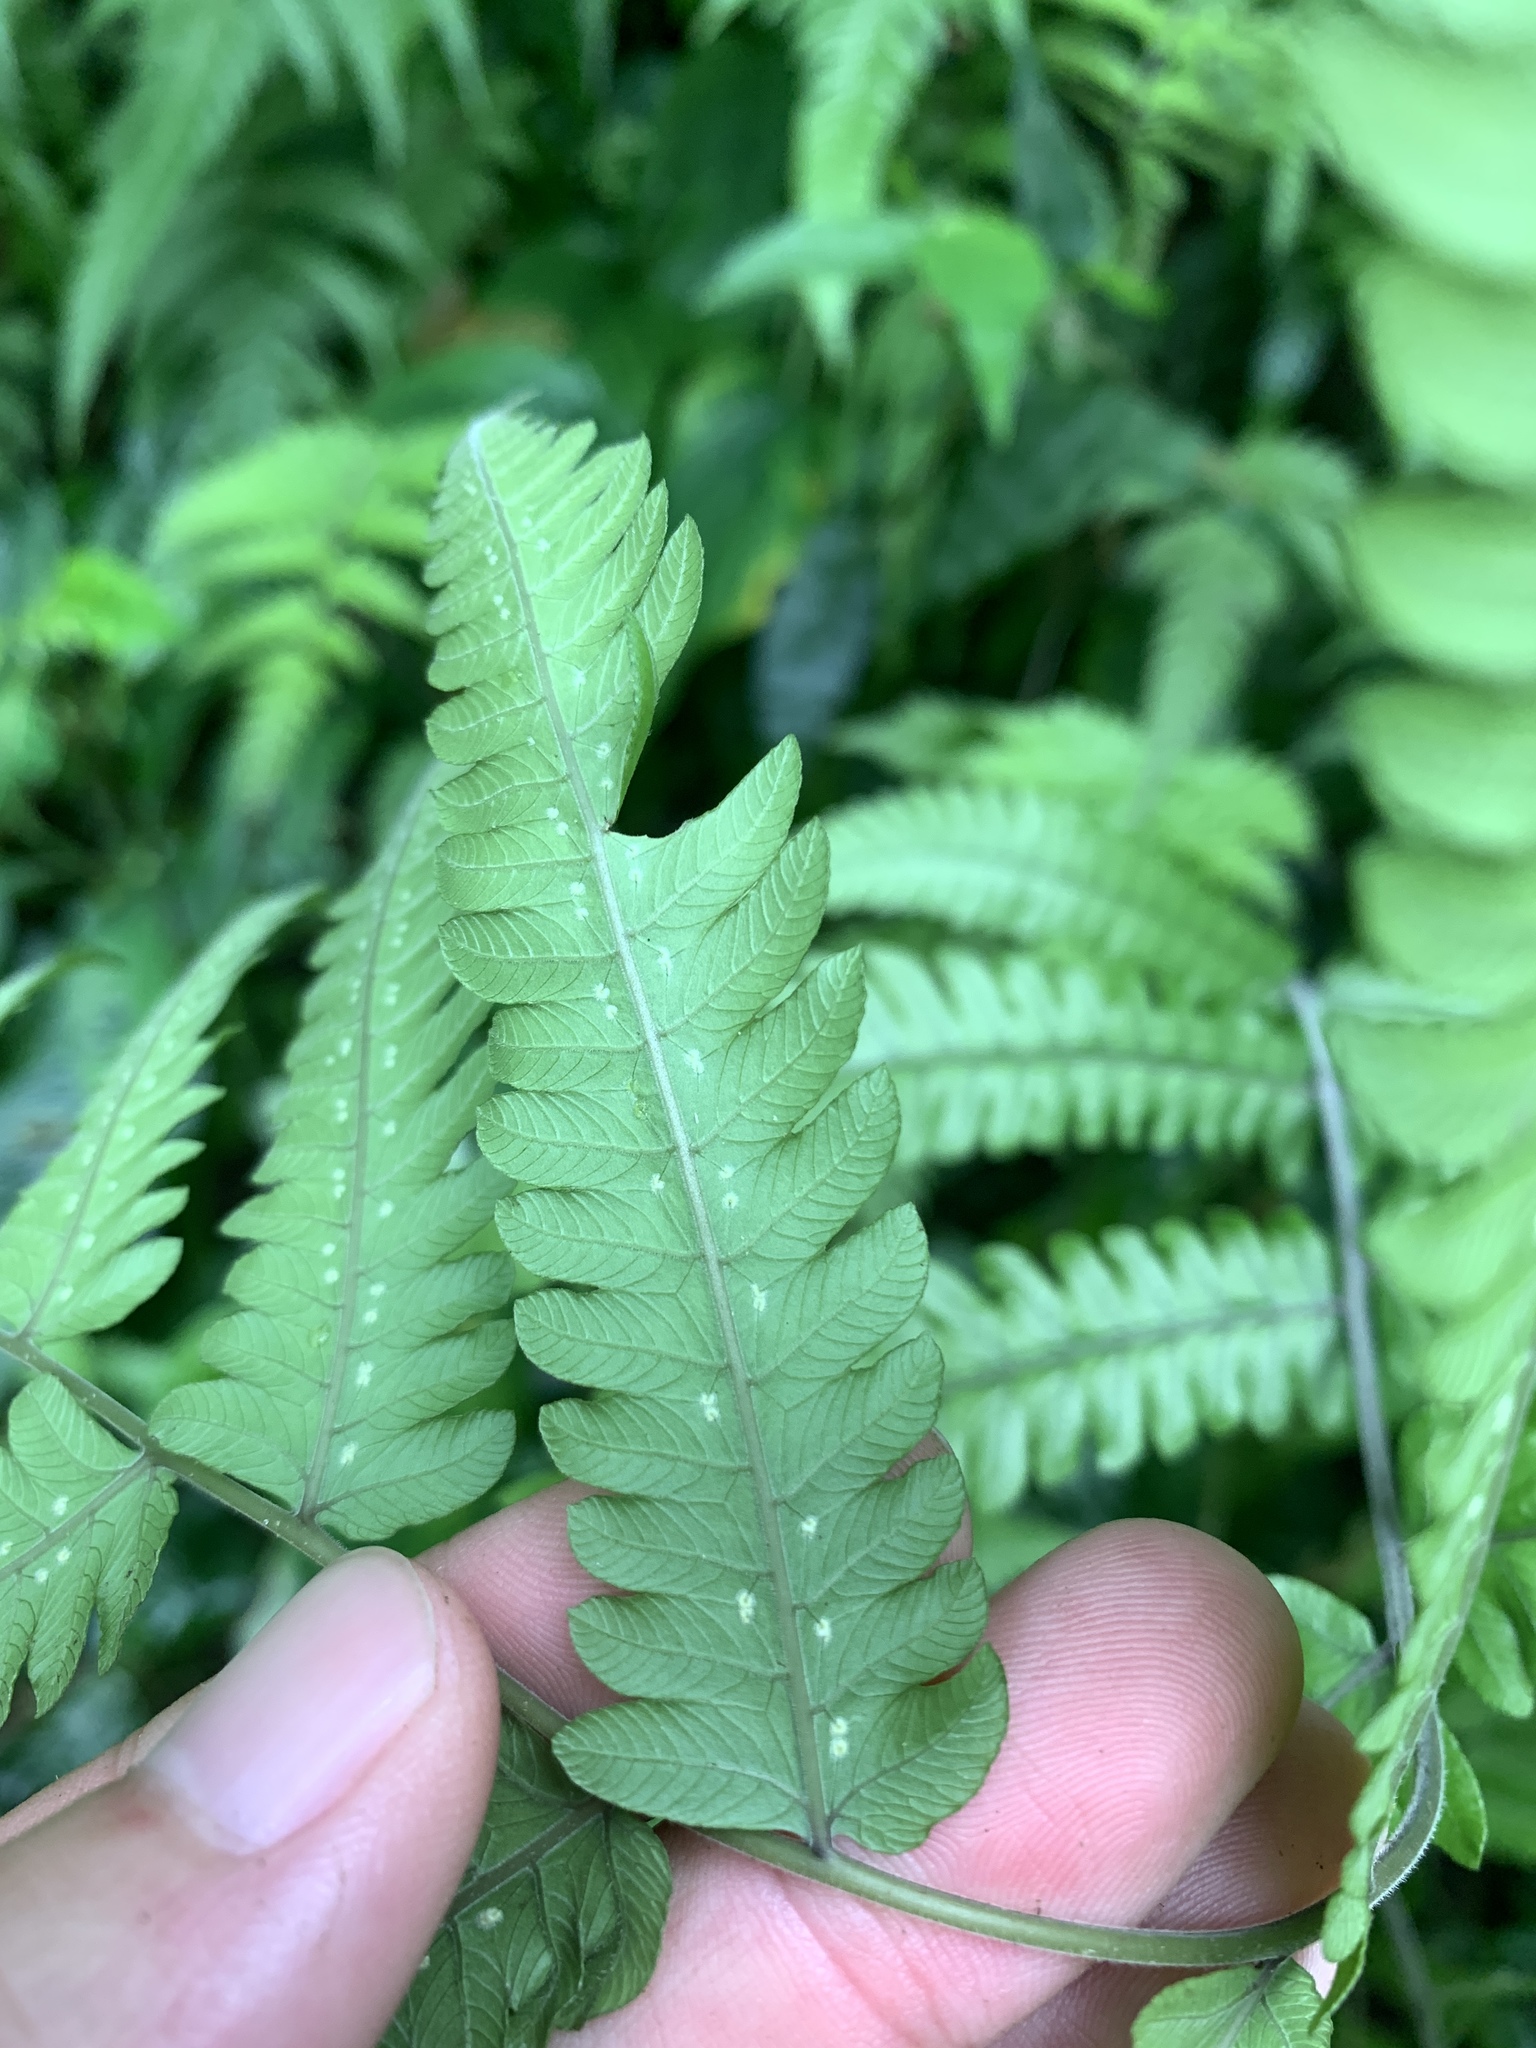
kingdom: Plantae
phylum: Tracheophyta
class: Polypodiopsida
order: Polypodiales
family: Thelypteridaceae
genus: Christella
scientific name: Christella ensifera
